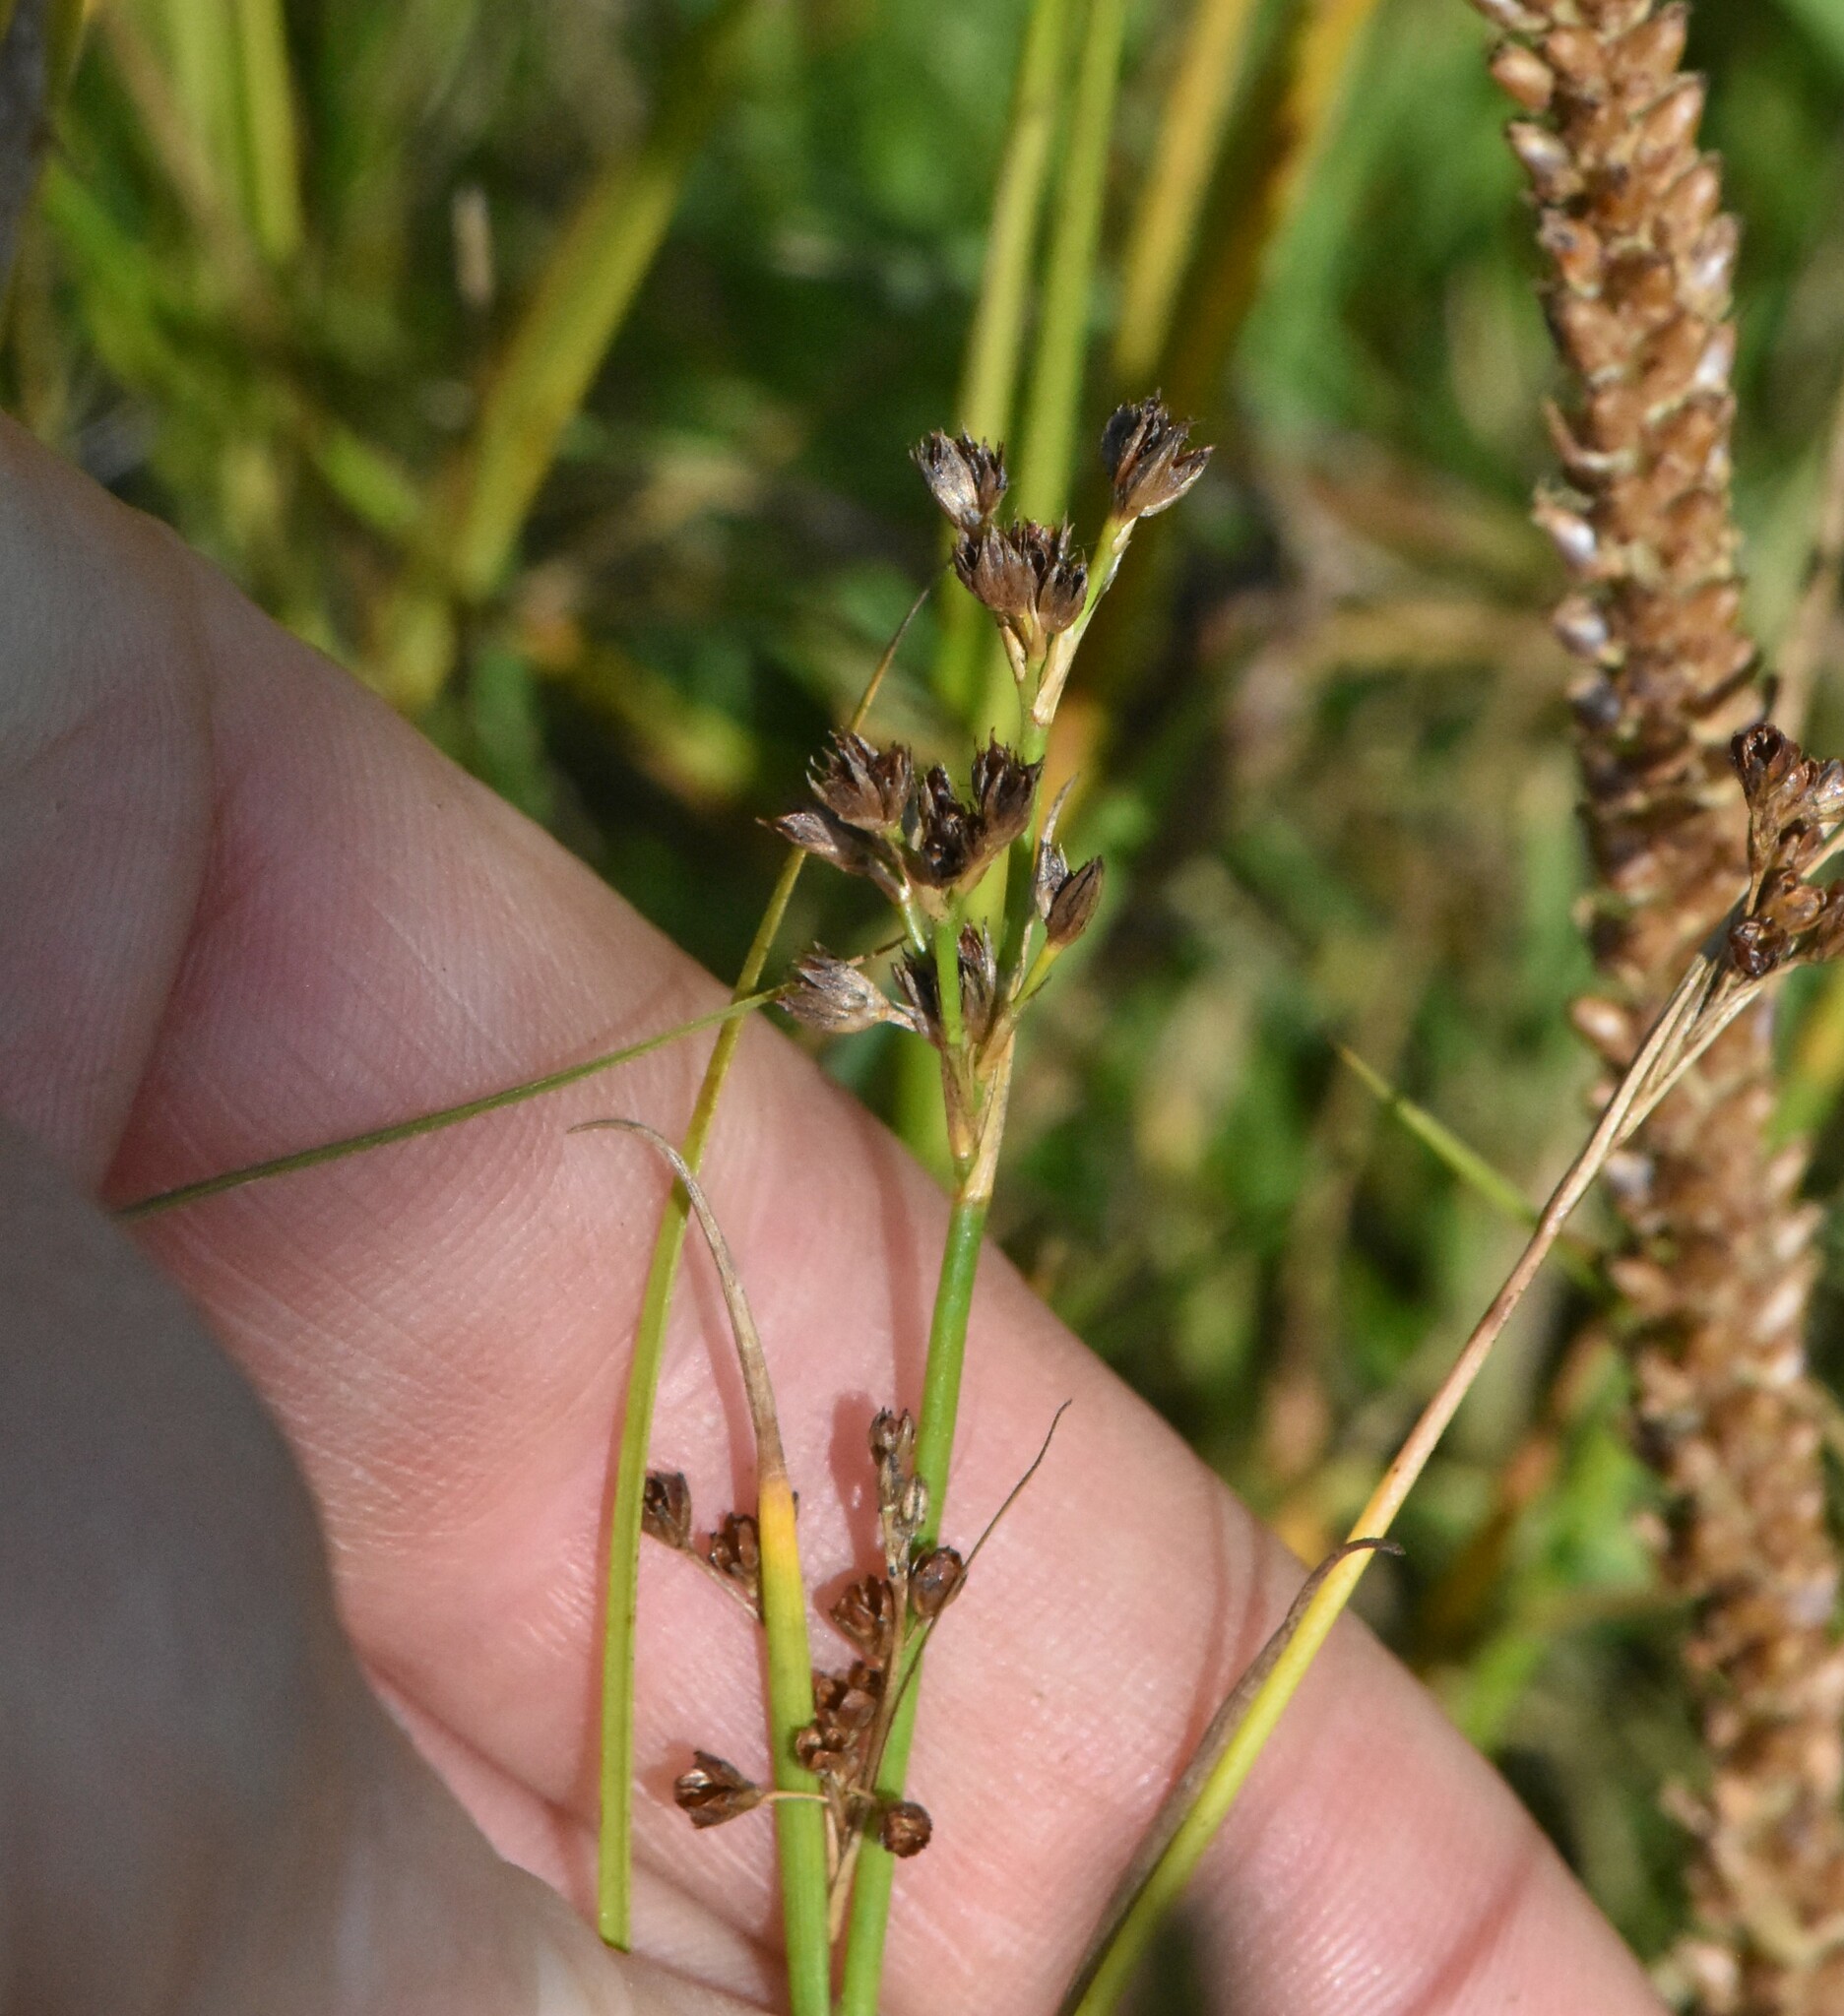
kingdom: Plantae
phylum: Tracheophyta
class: Liliopsida
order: Poales
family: Juncaceae
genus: Juncus
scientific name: Juncus articulatus
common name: Jointed rush
